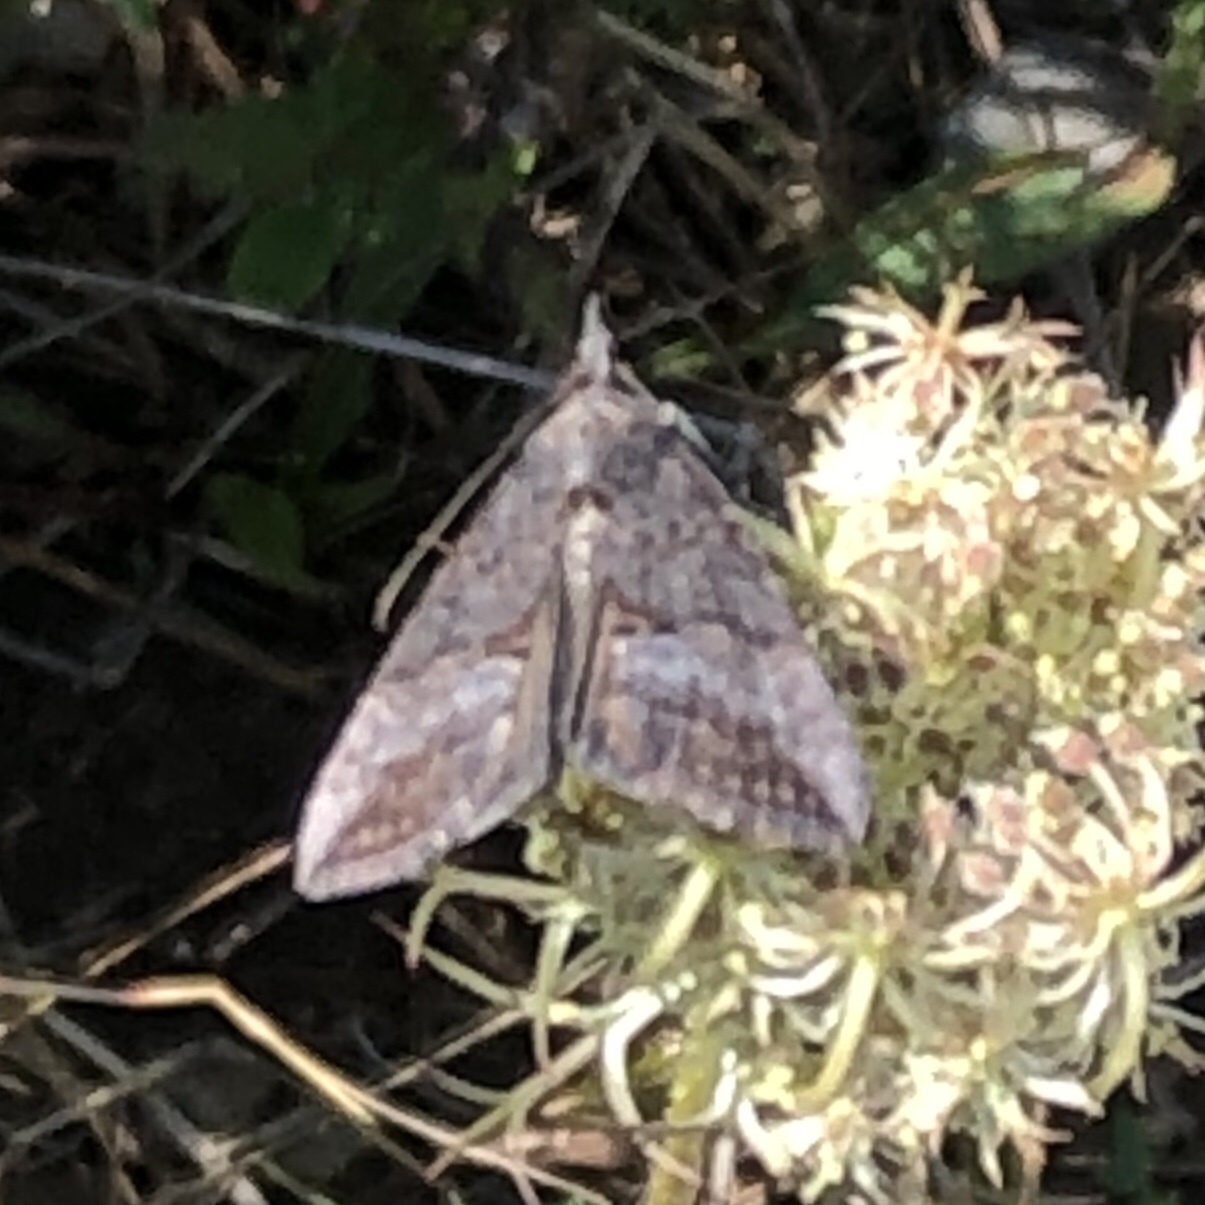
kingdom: Animalia
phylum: Arthropoda
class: Insecta
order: Lepidoptera
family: Erebidae
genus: Hypena
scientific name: Hypena scabra
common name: Green cloverworm
